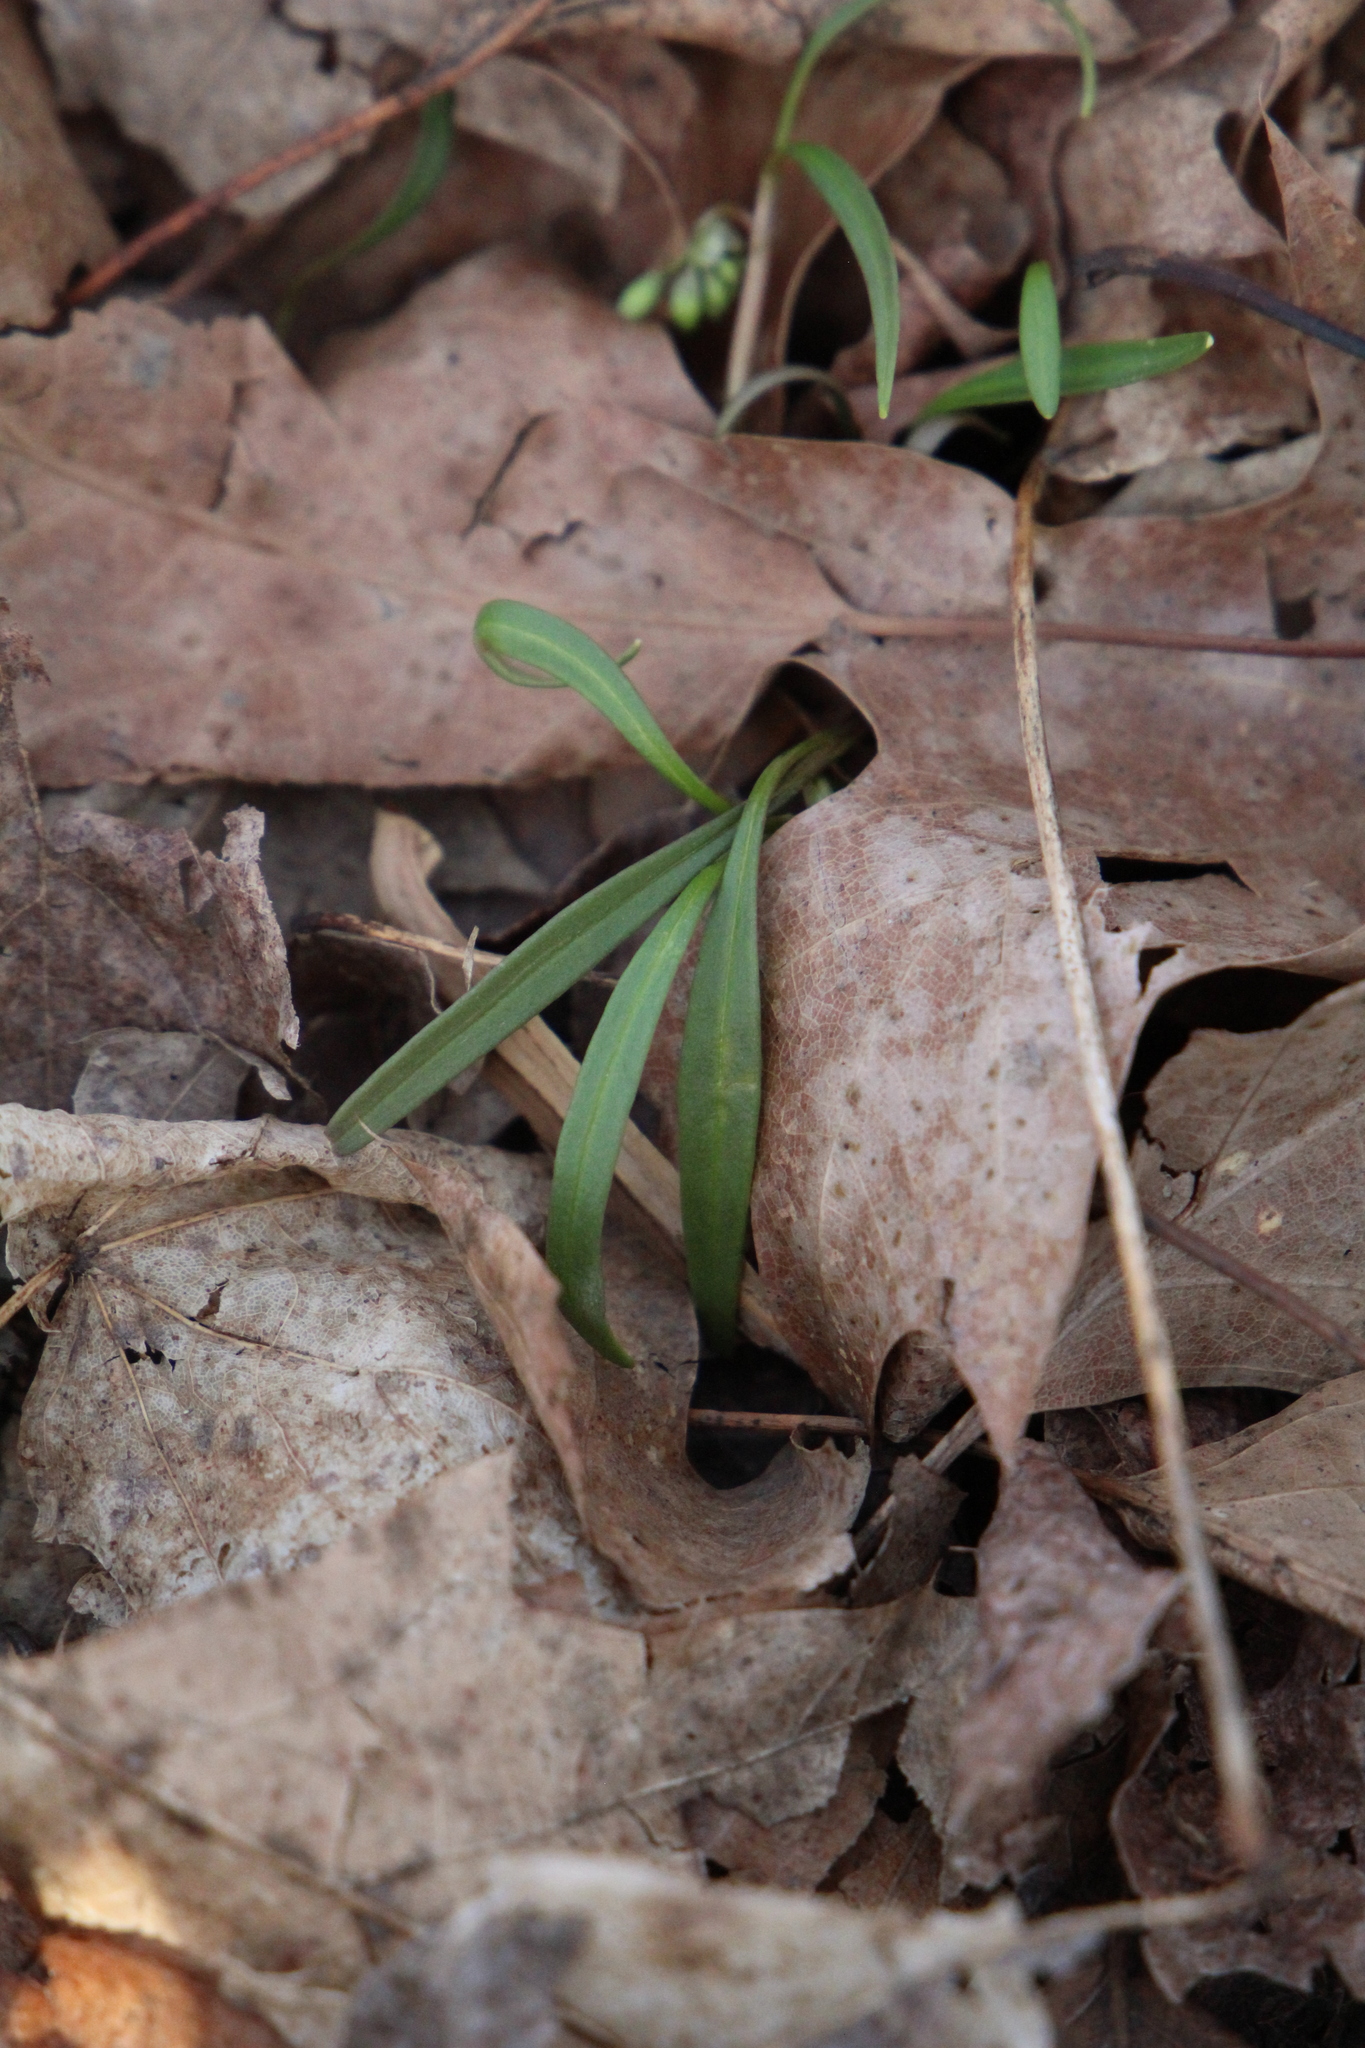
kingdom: Plantae
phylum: Tracheophyta
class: Magnoliopsida
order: Caryophyllales
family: Montiaceae
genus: Claytonia
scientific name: Claytonia virginica
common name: Virginia springbeauty
